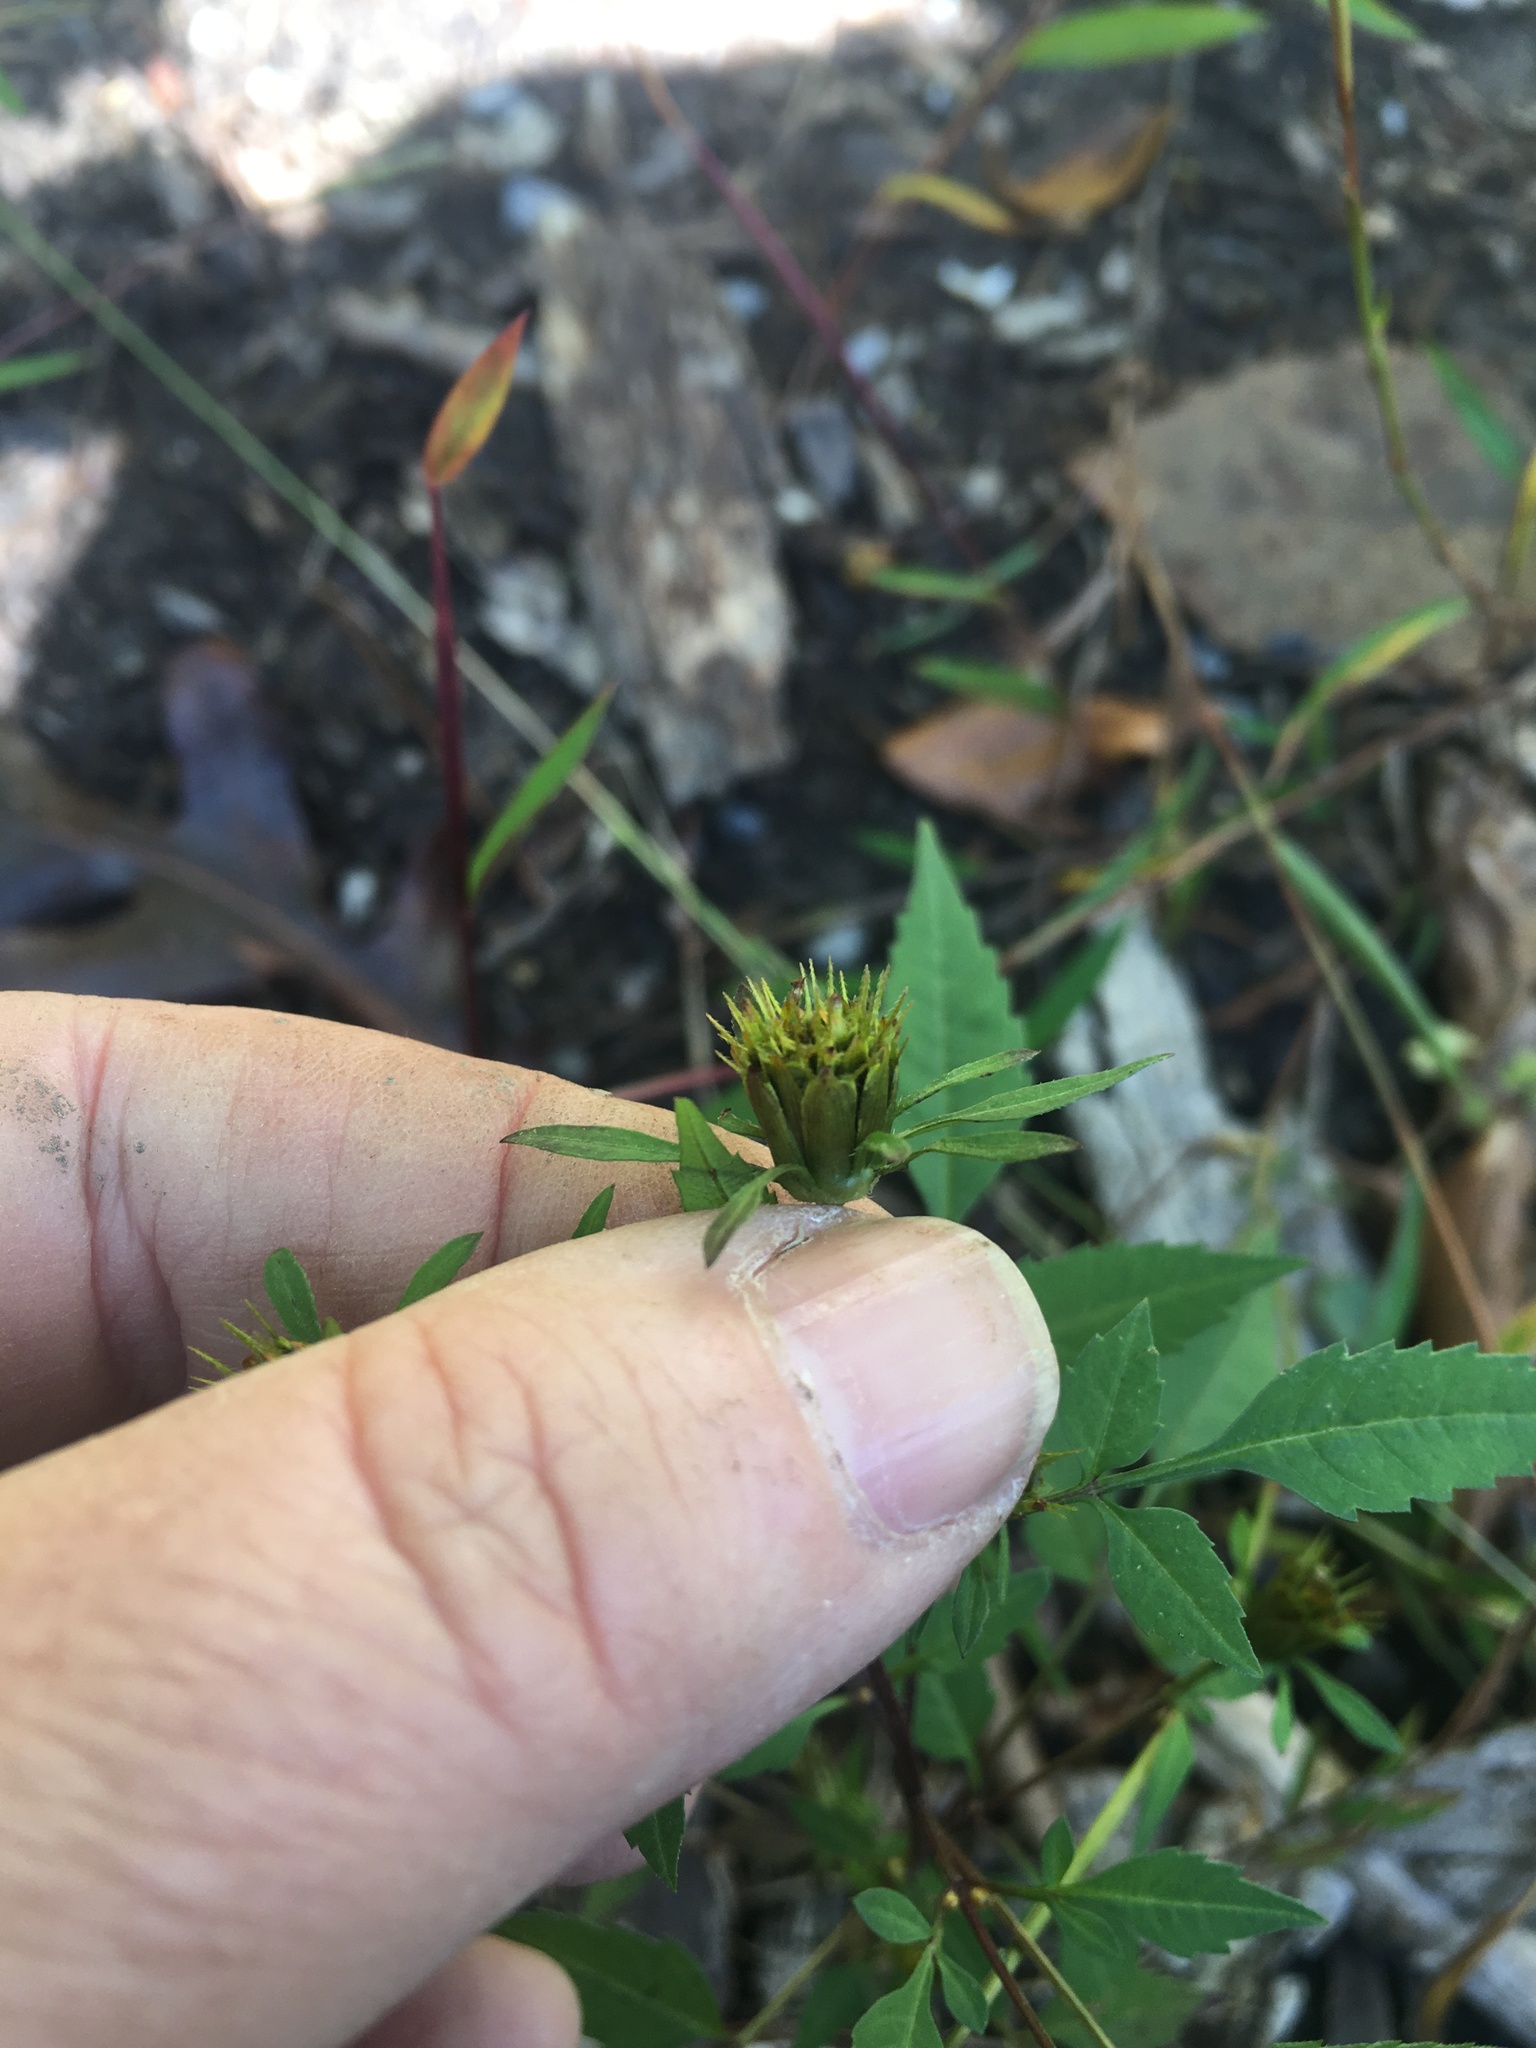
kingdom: Plantae
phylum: Tracheophyta
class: Magnoliopsida
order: Asterales
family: Asteraceae
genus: Bidens
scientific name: Bidens frondosa
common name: Beggarticks
